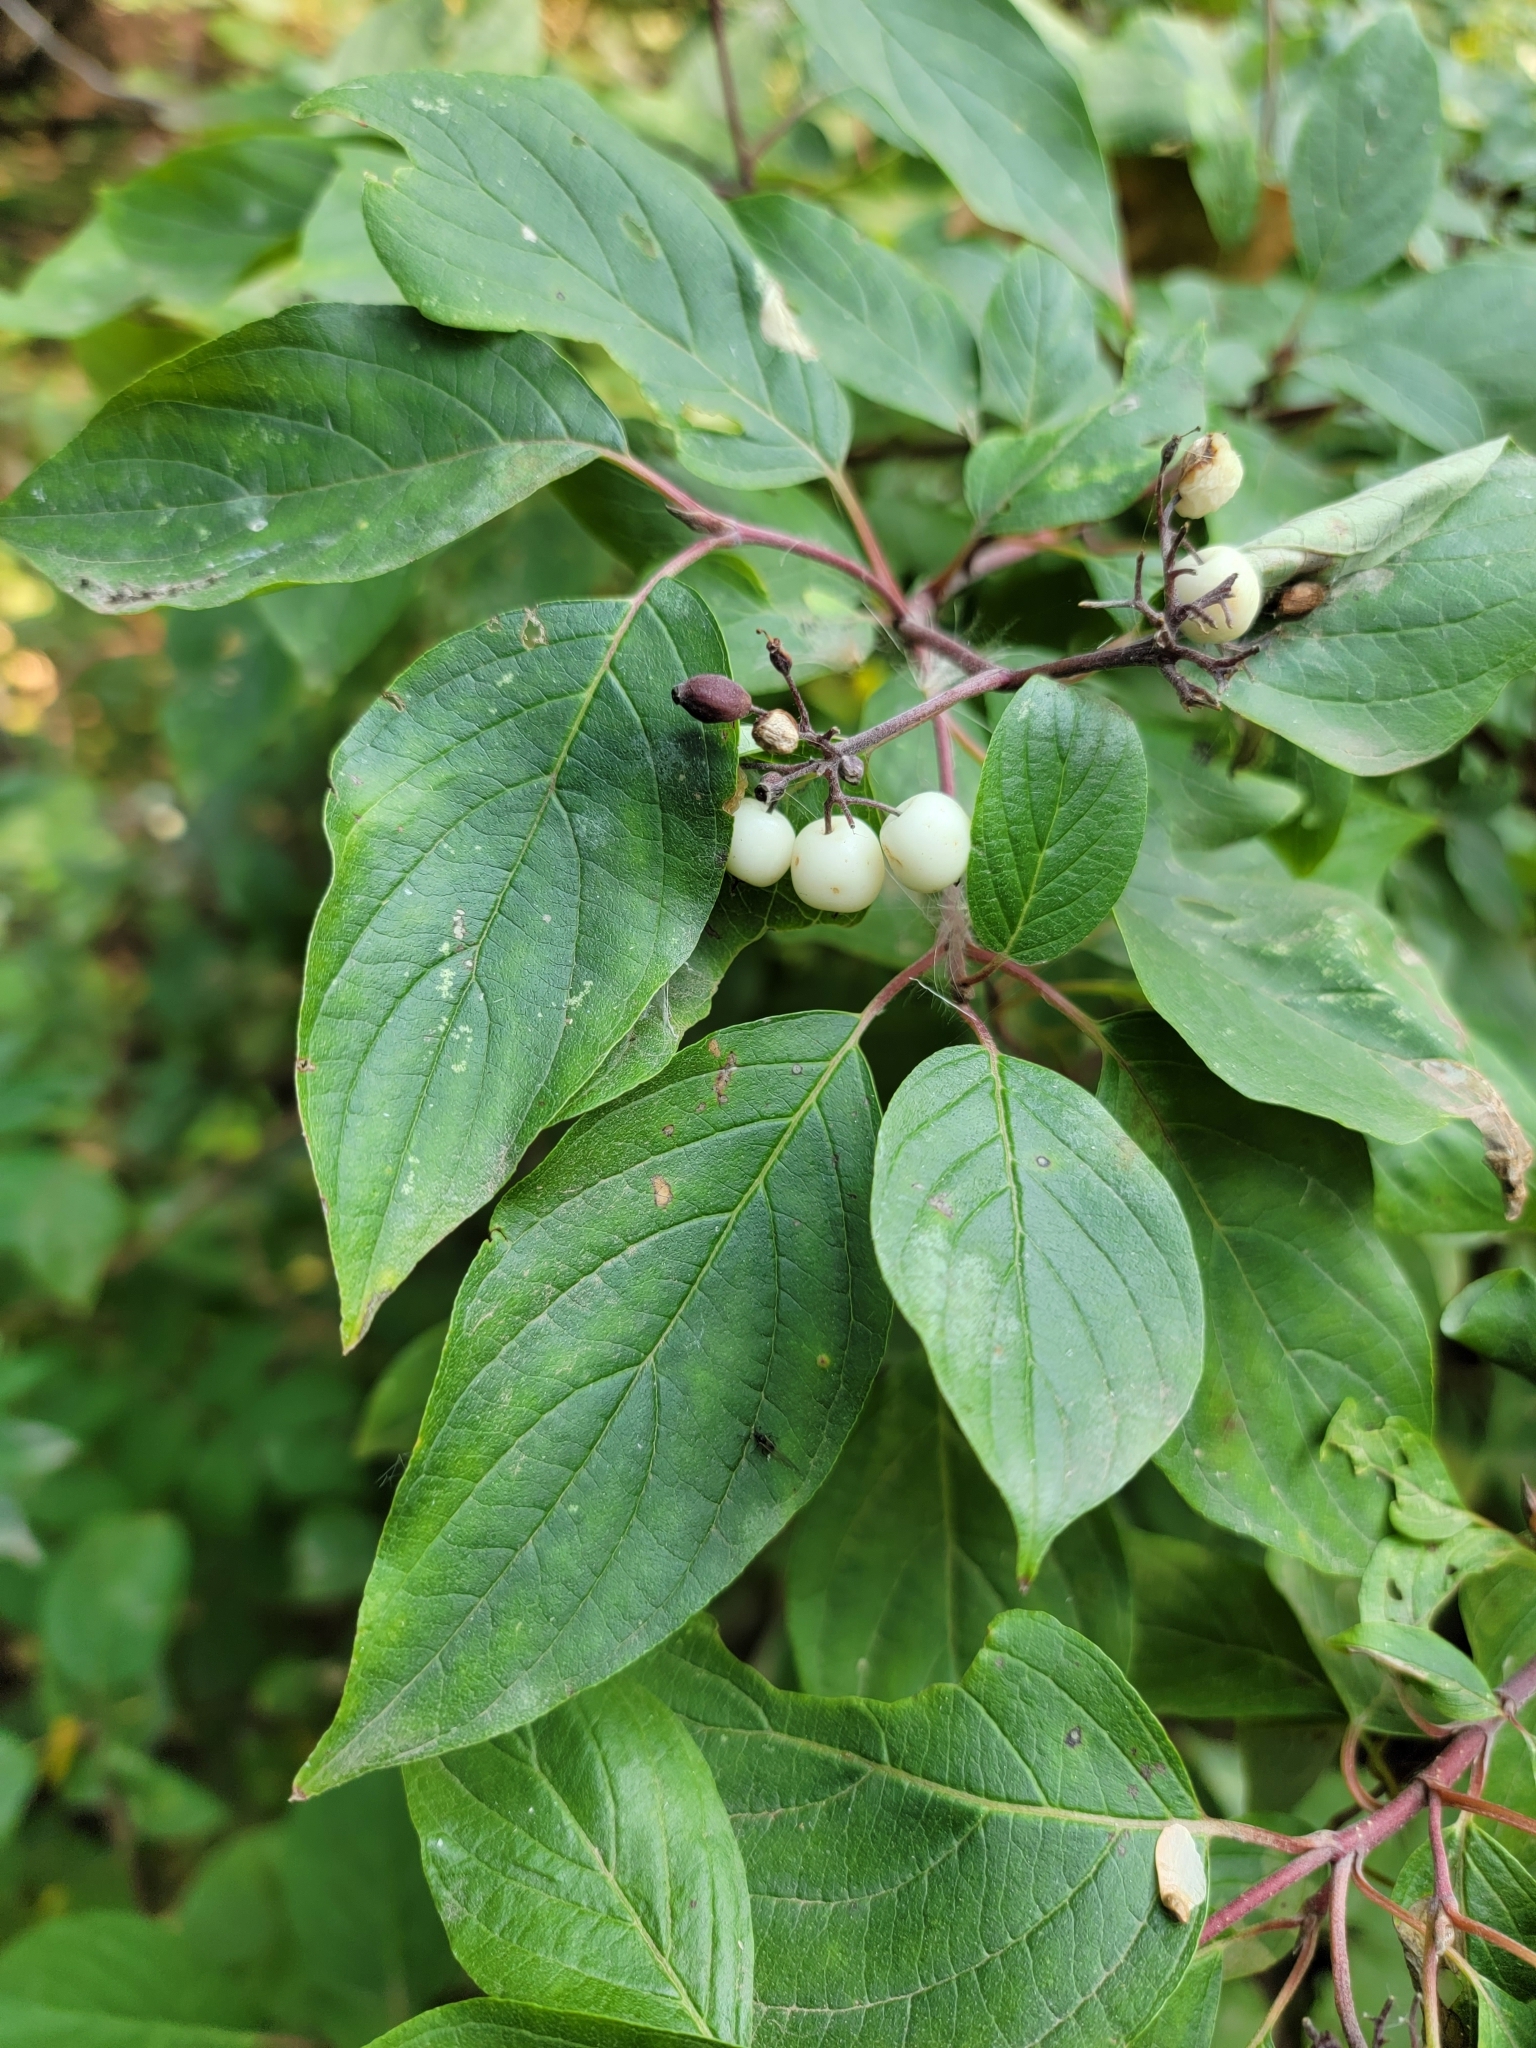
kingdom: Plantae
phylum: Tracheophyta
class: Magnoliopsida
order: Cornales
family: Cornaceae
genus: Cornus
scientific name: Cornus sericea
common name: Red-osier dogwood
